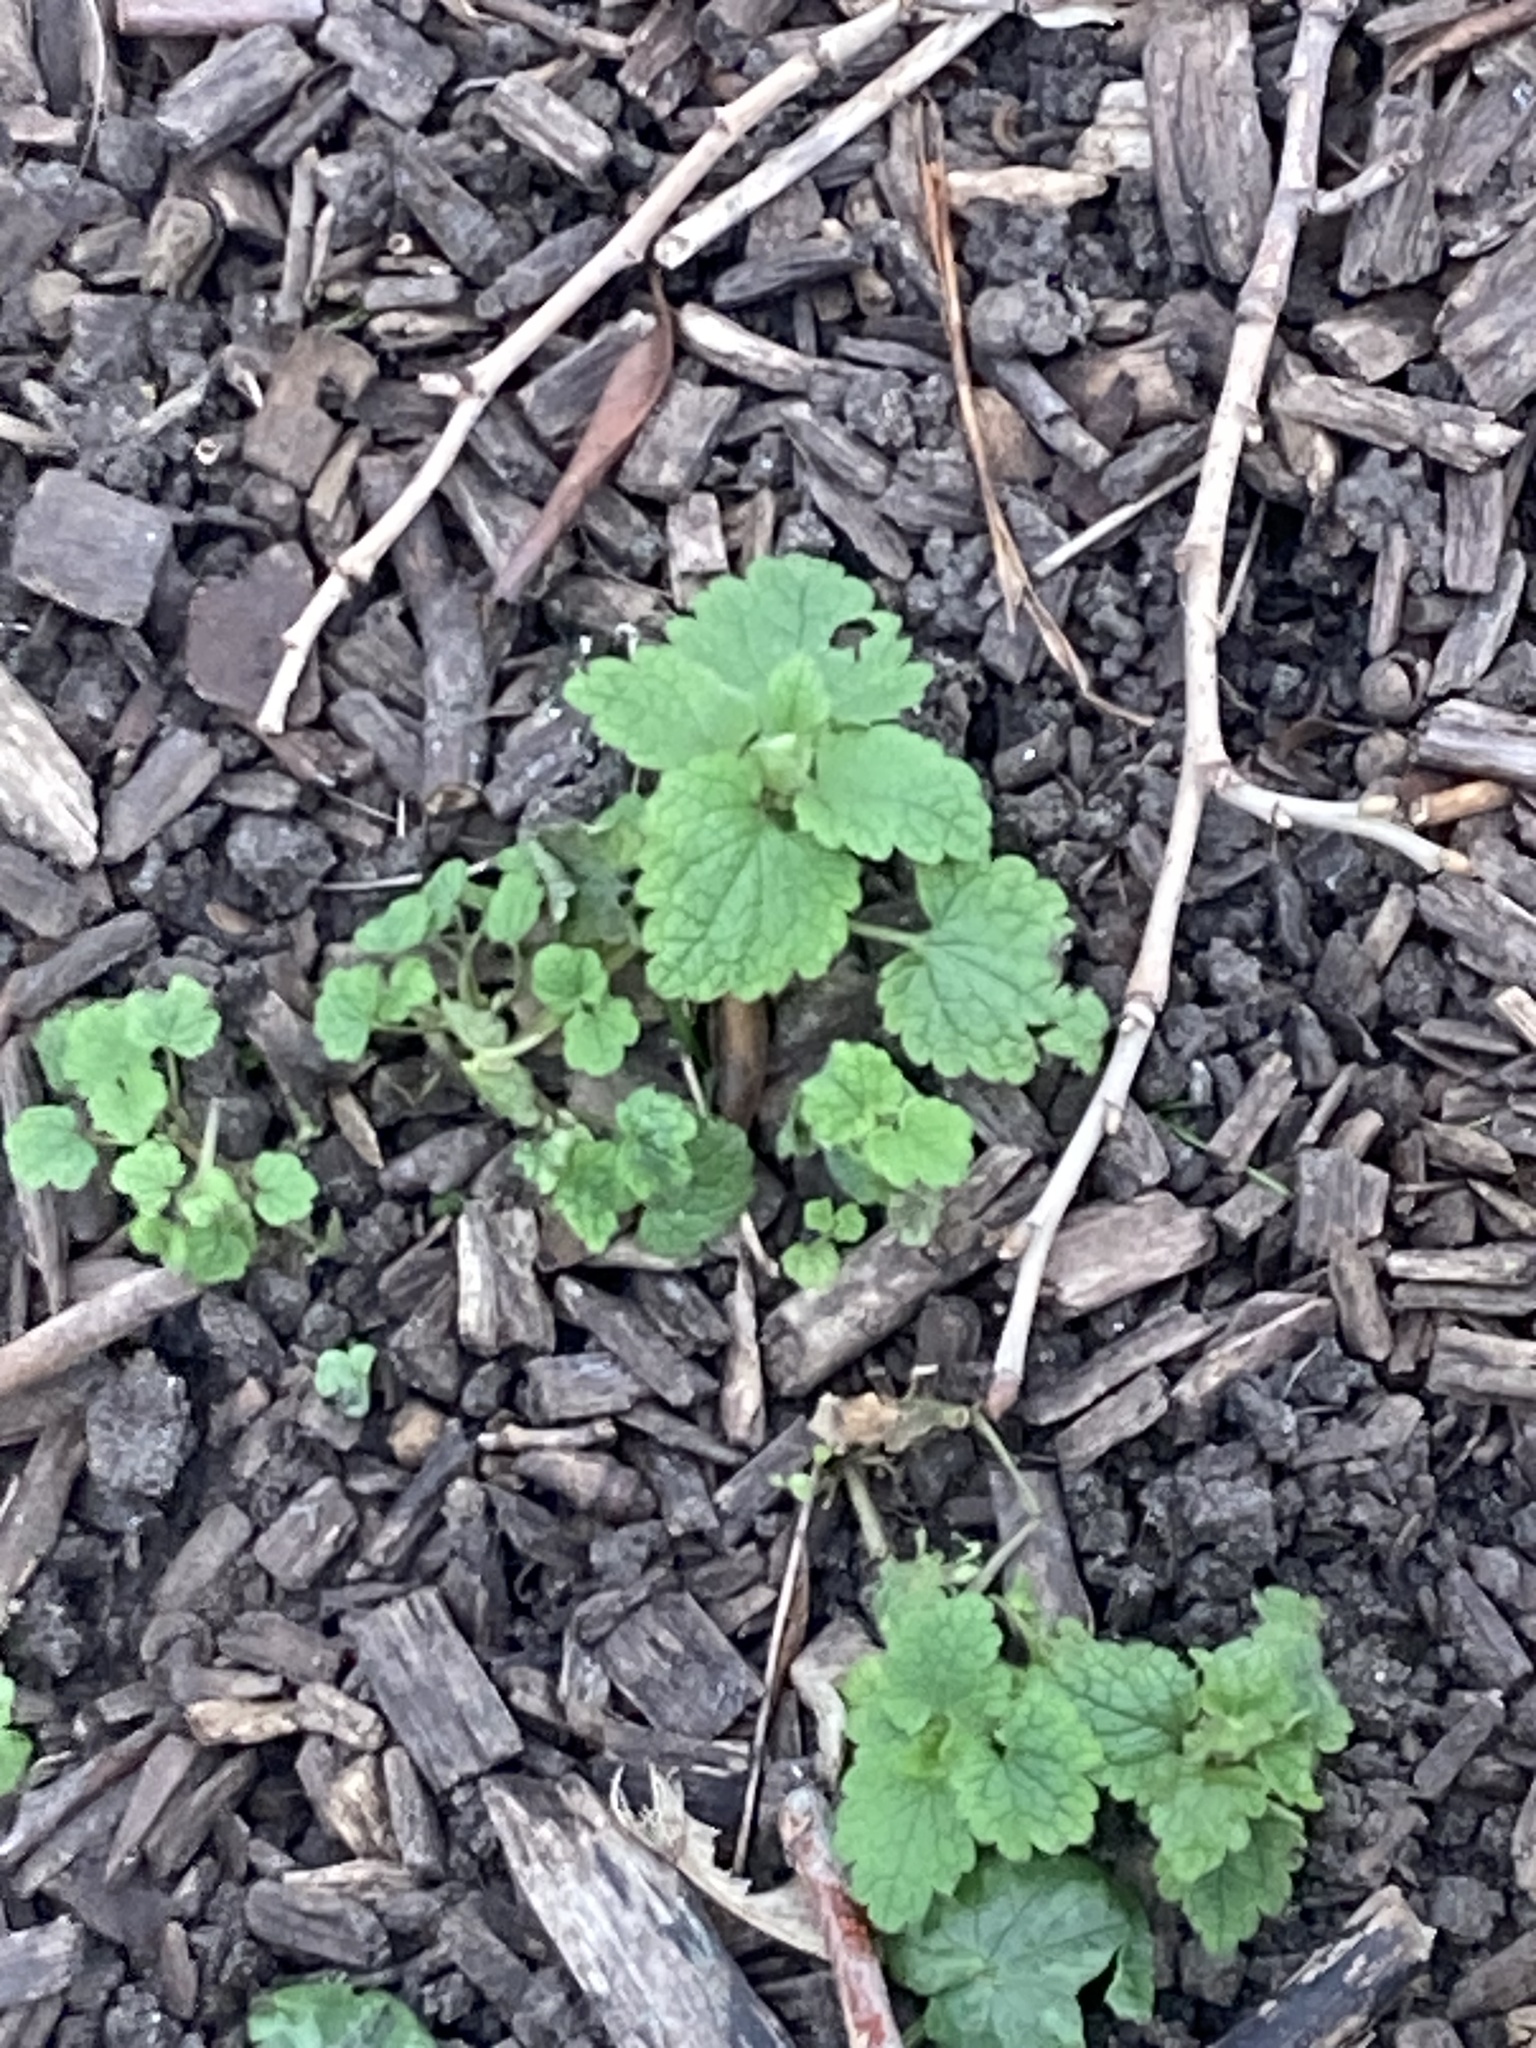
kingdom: Plantae
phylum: Tracheophyta
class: Magnoliopsida
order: Lamiales
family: Lamiaceae
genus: Lamium
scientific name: Lamium purpureum
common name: Red dead-nettle
